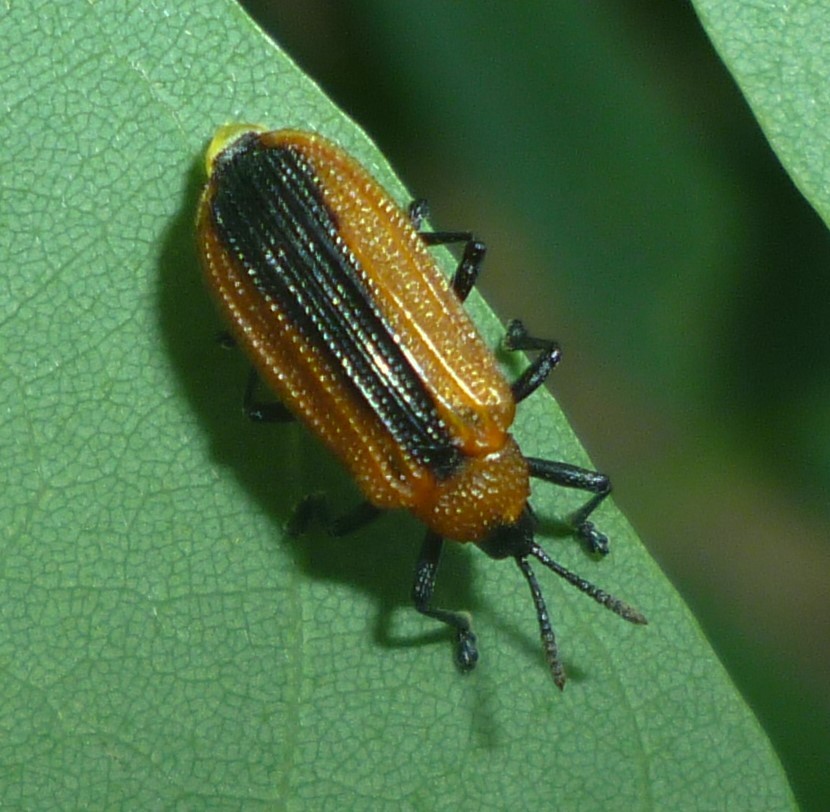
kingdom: Animalia
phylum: Arthropoda
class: Insecta
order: Coleoptera
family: Chrysomelidae
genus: Odontota
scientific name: Odontota dorsalis
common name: Locust leaf-miner beetle
